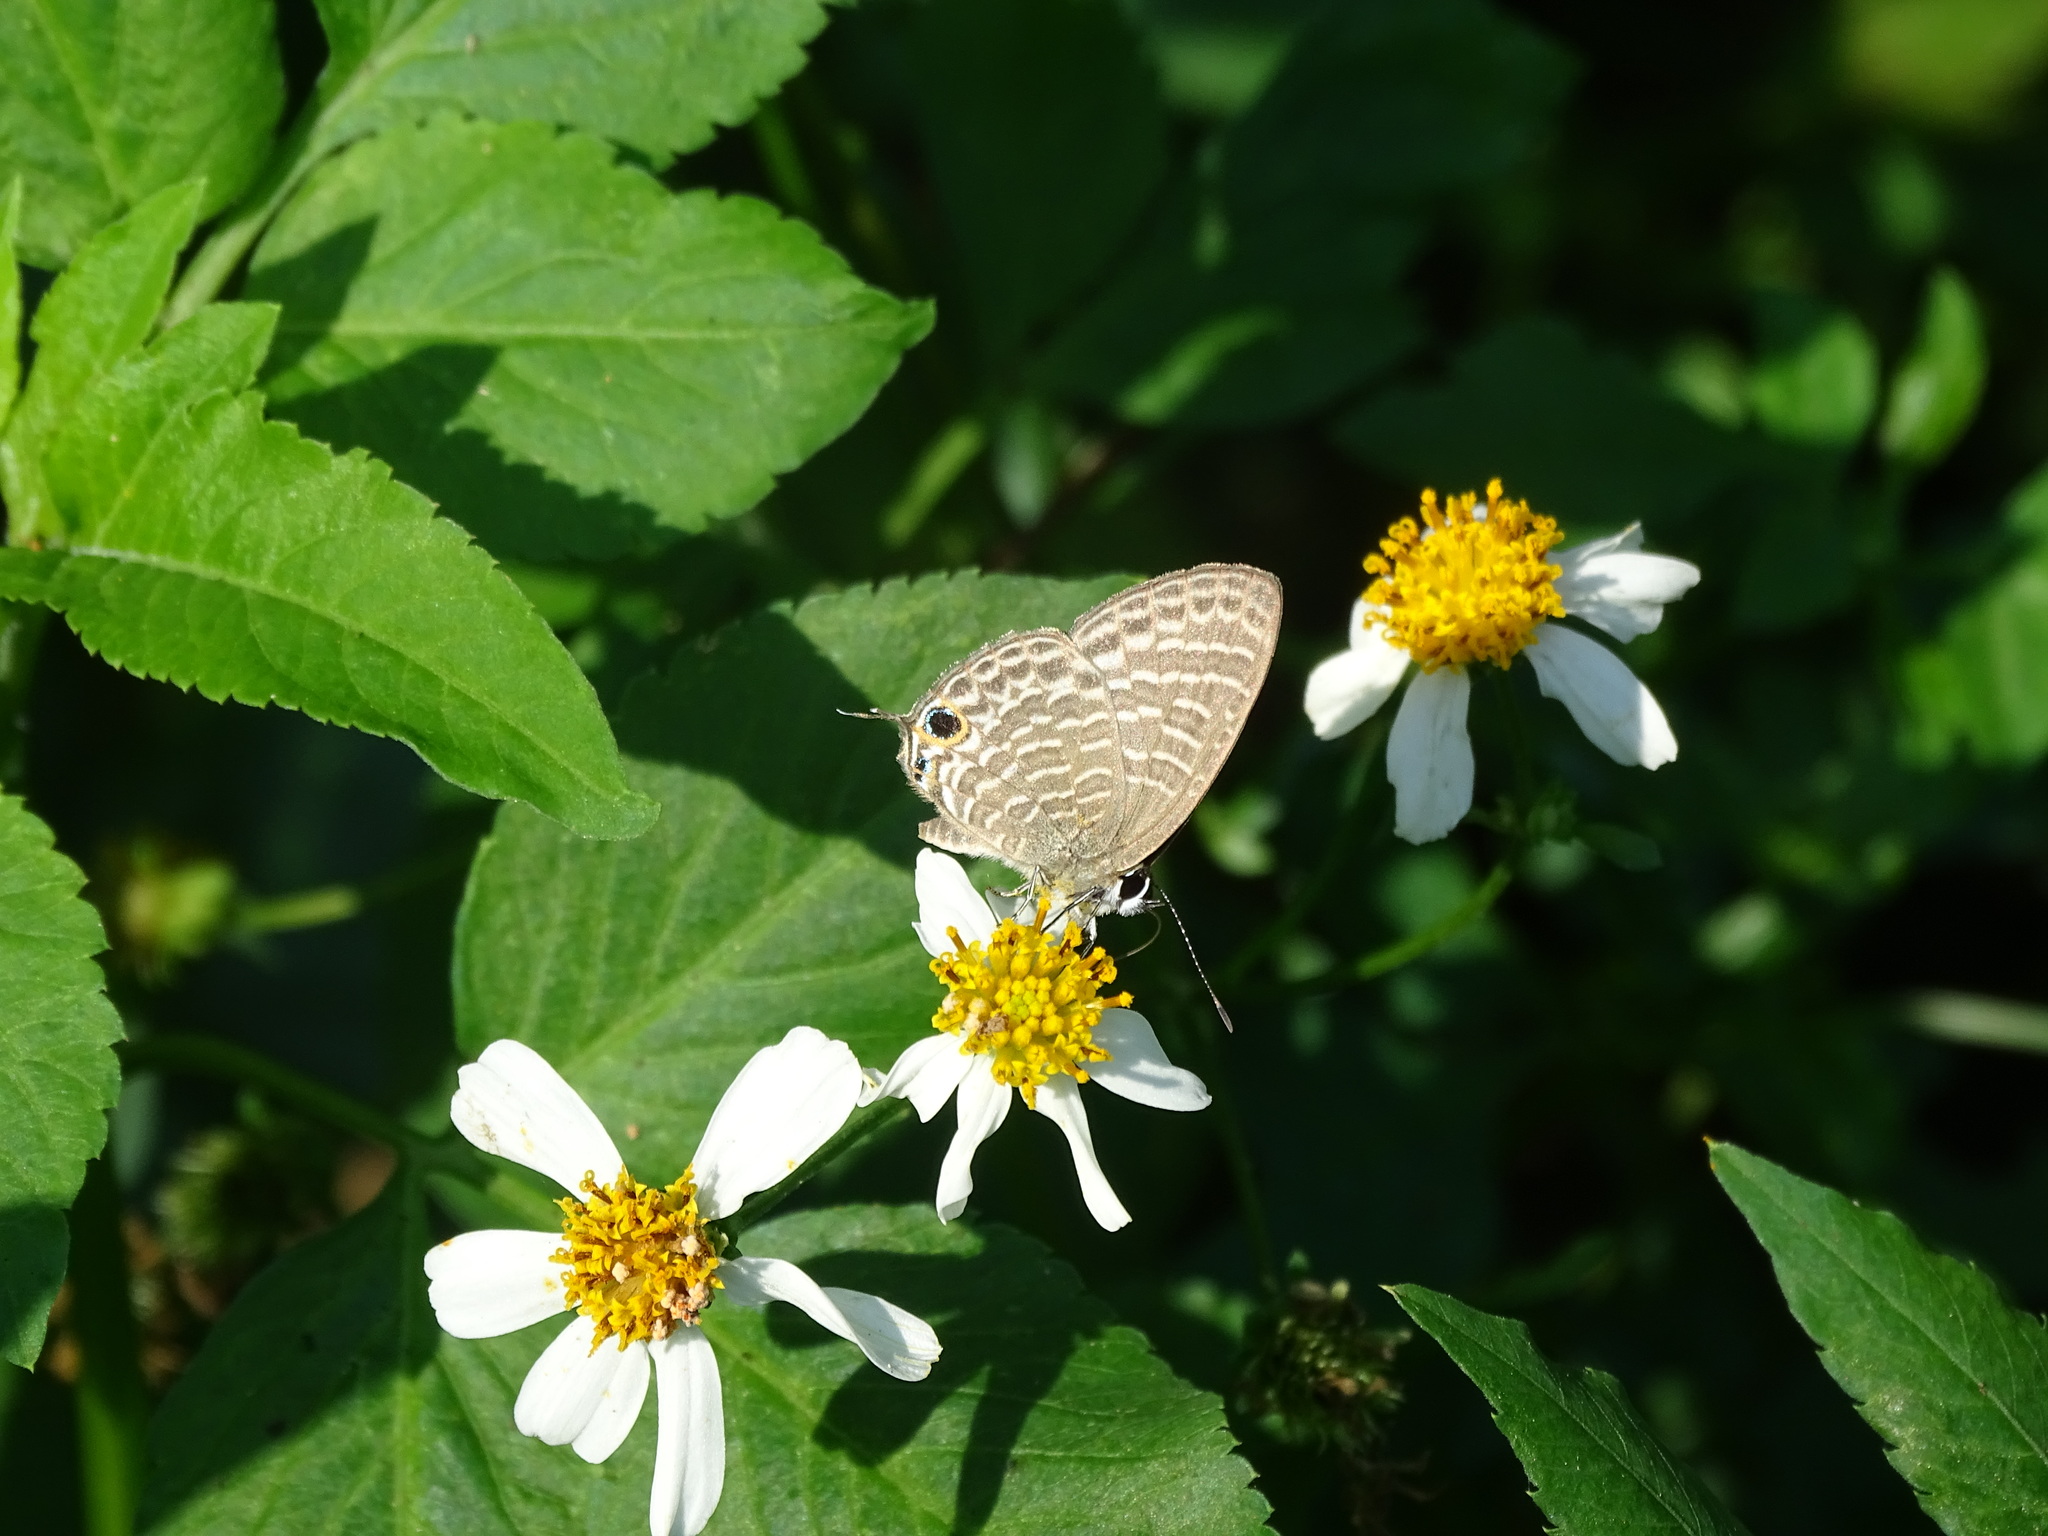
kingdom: Animalia
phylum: Arthropoda
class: Insecta
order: Lepidoptera
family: Lycaenidae
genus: Nacaduba
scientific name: Nacaduba kurava
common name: Transparent 6-line blue
